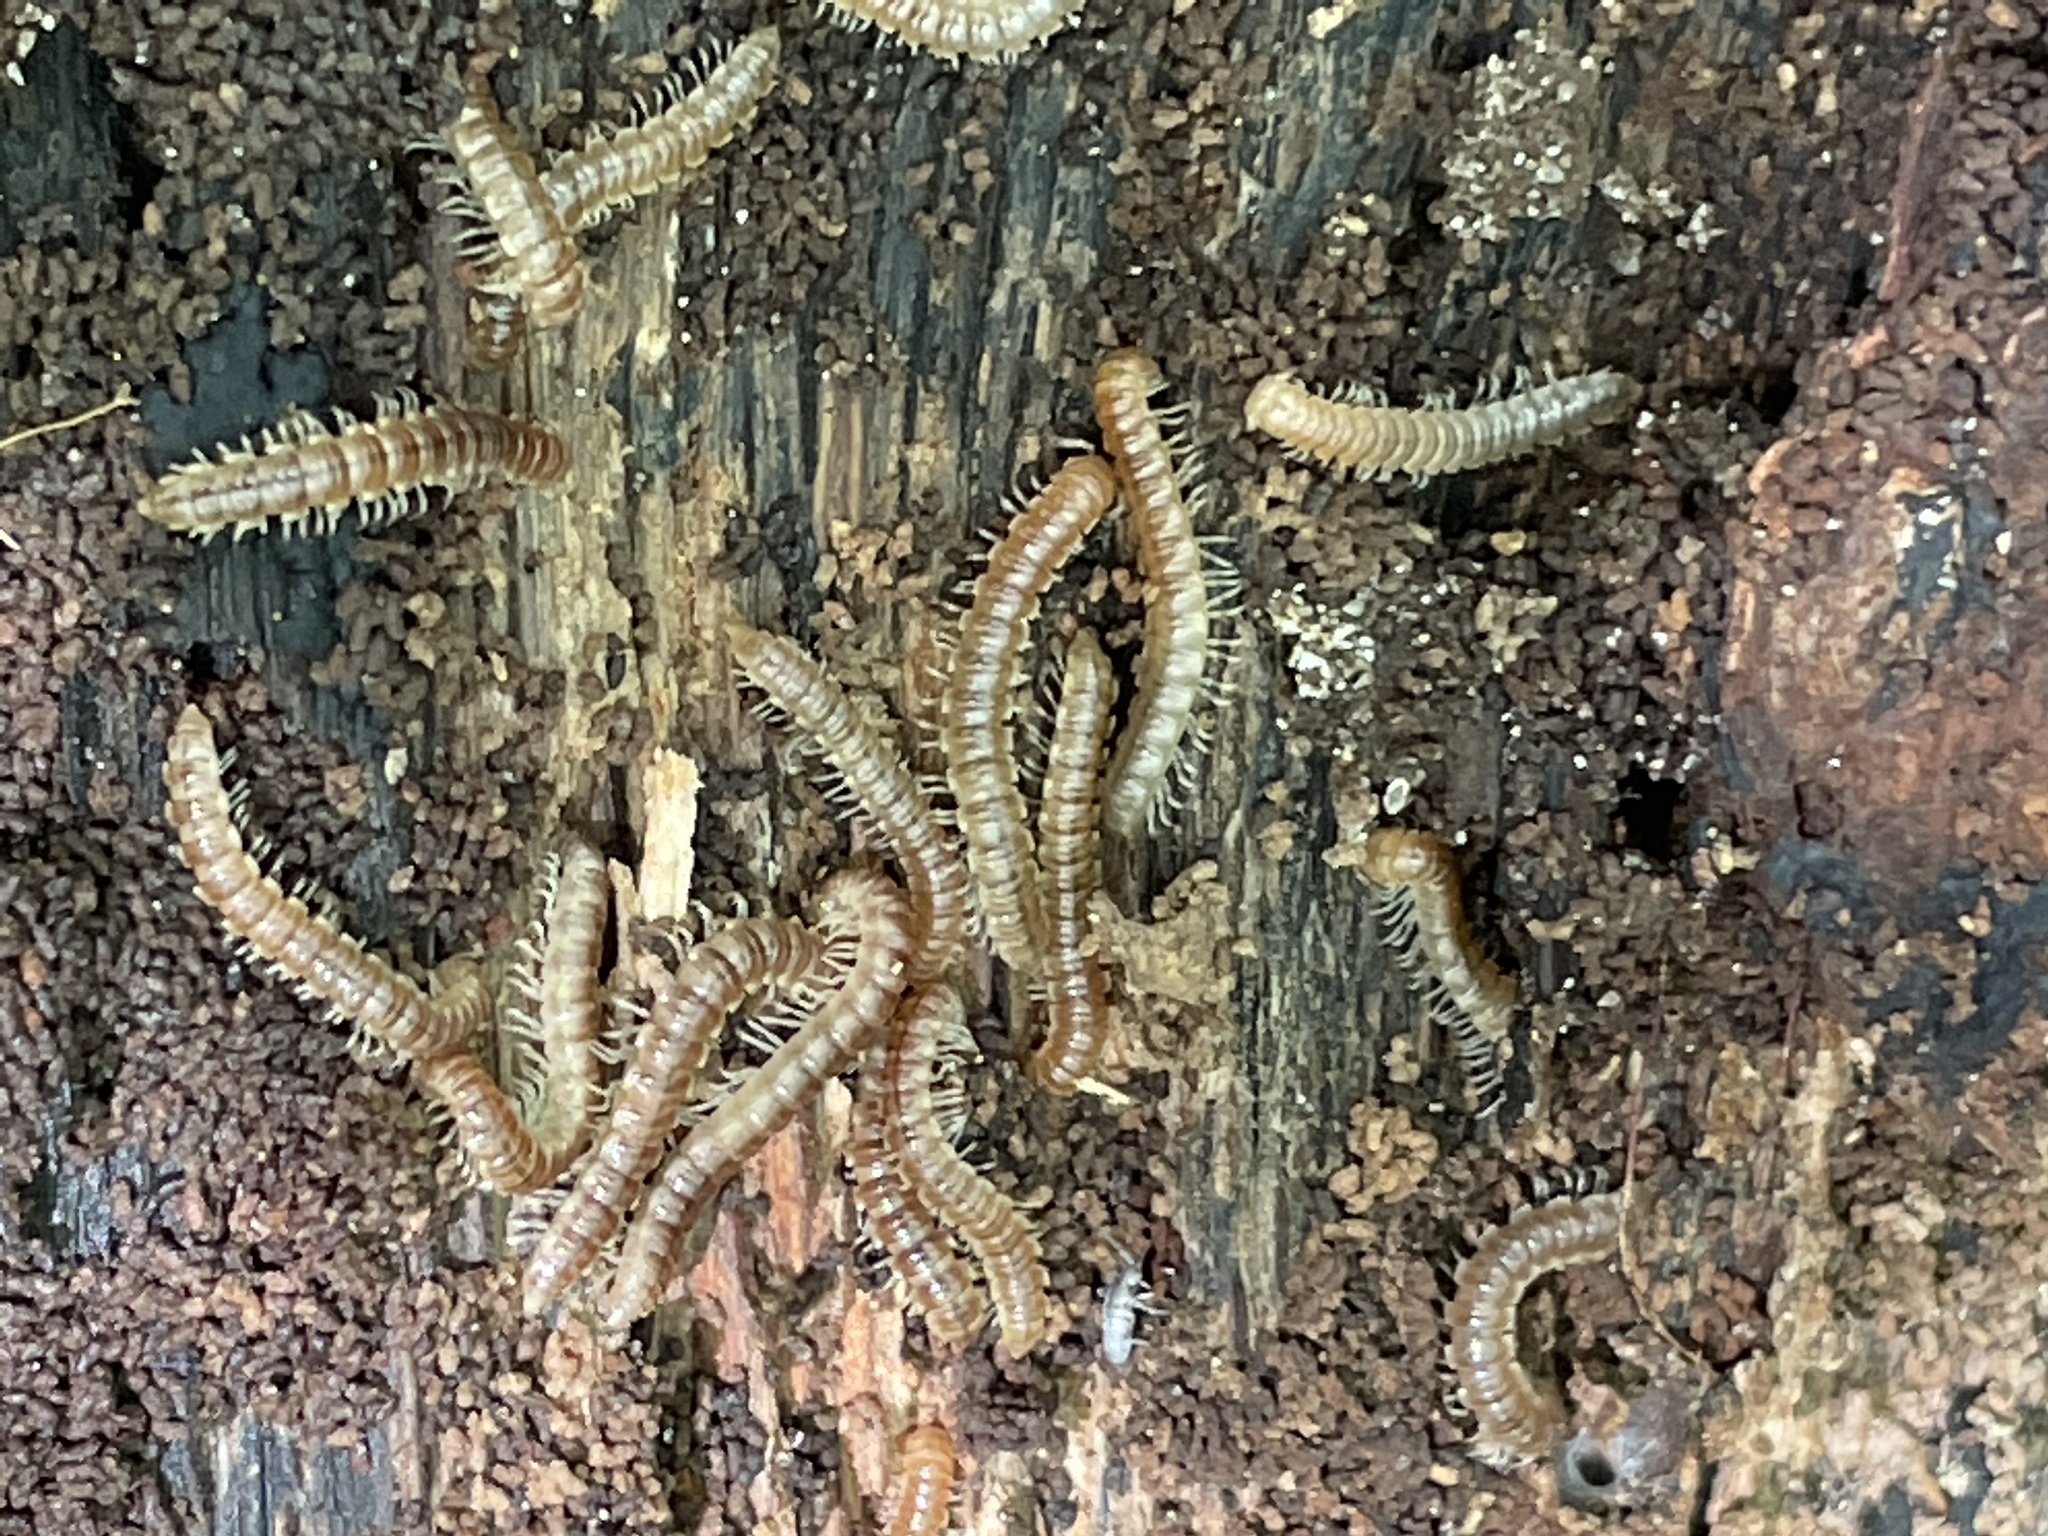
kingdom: Animalia
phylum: Arthropoda
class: Diplopoda
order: Polydesmida
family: Paradoxosomatidae
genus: Oxidus
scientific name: Oxidus gracilis
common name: Greenhouse millipede
